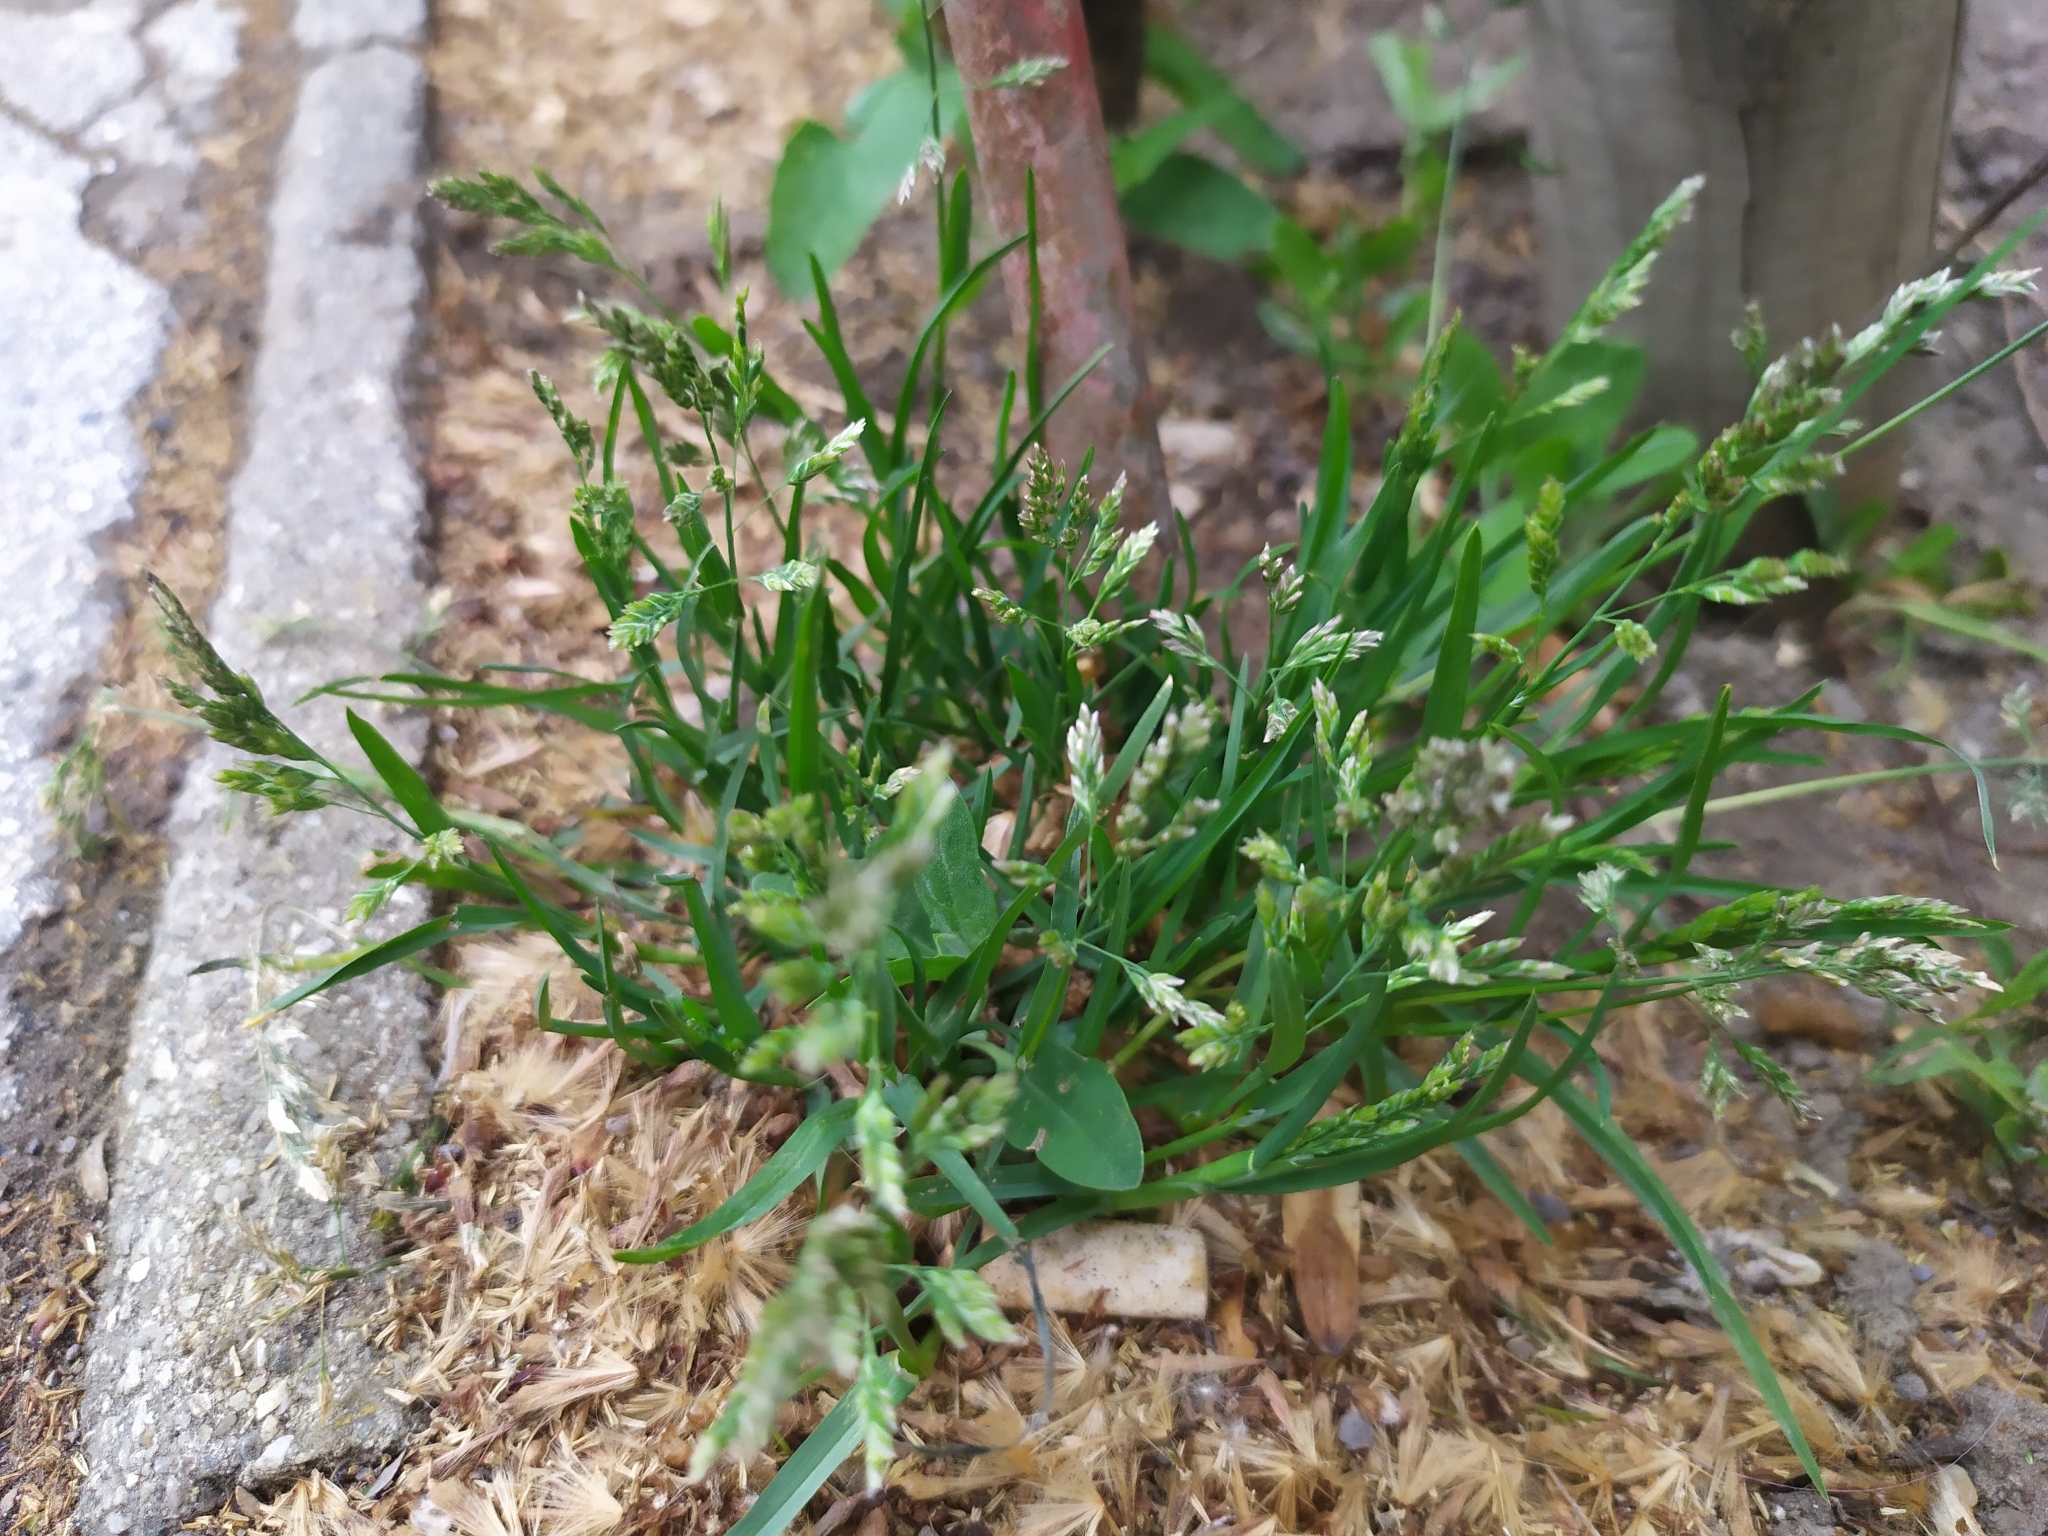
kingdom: Plantae
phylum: Tracheophyta
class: Liliopsida
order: Poales
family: Poaceae
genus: Poa
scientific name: Poa annua
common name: Annual bluegrass
